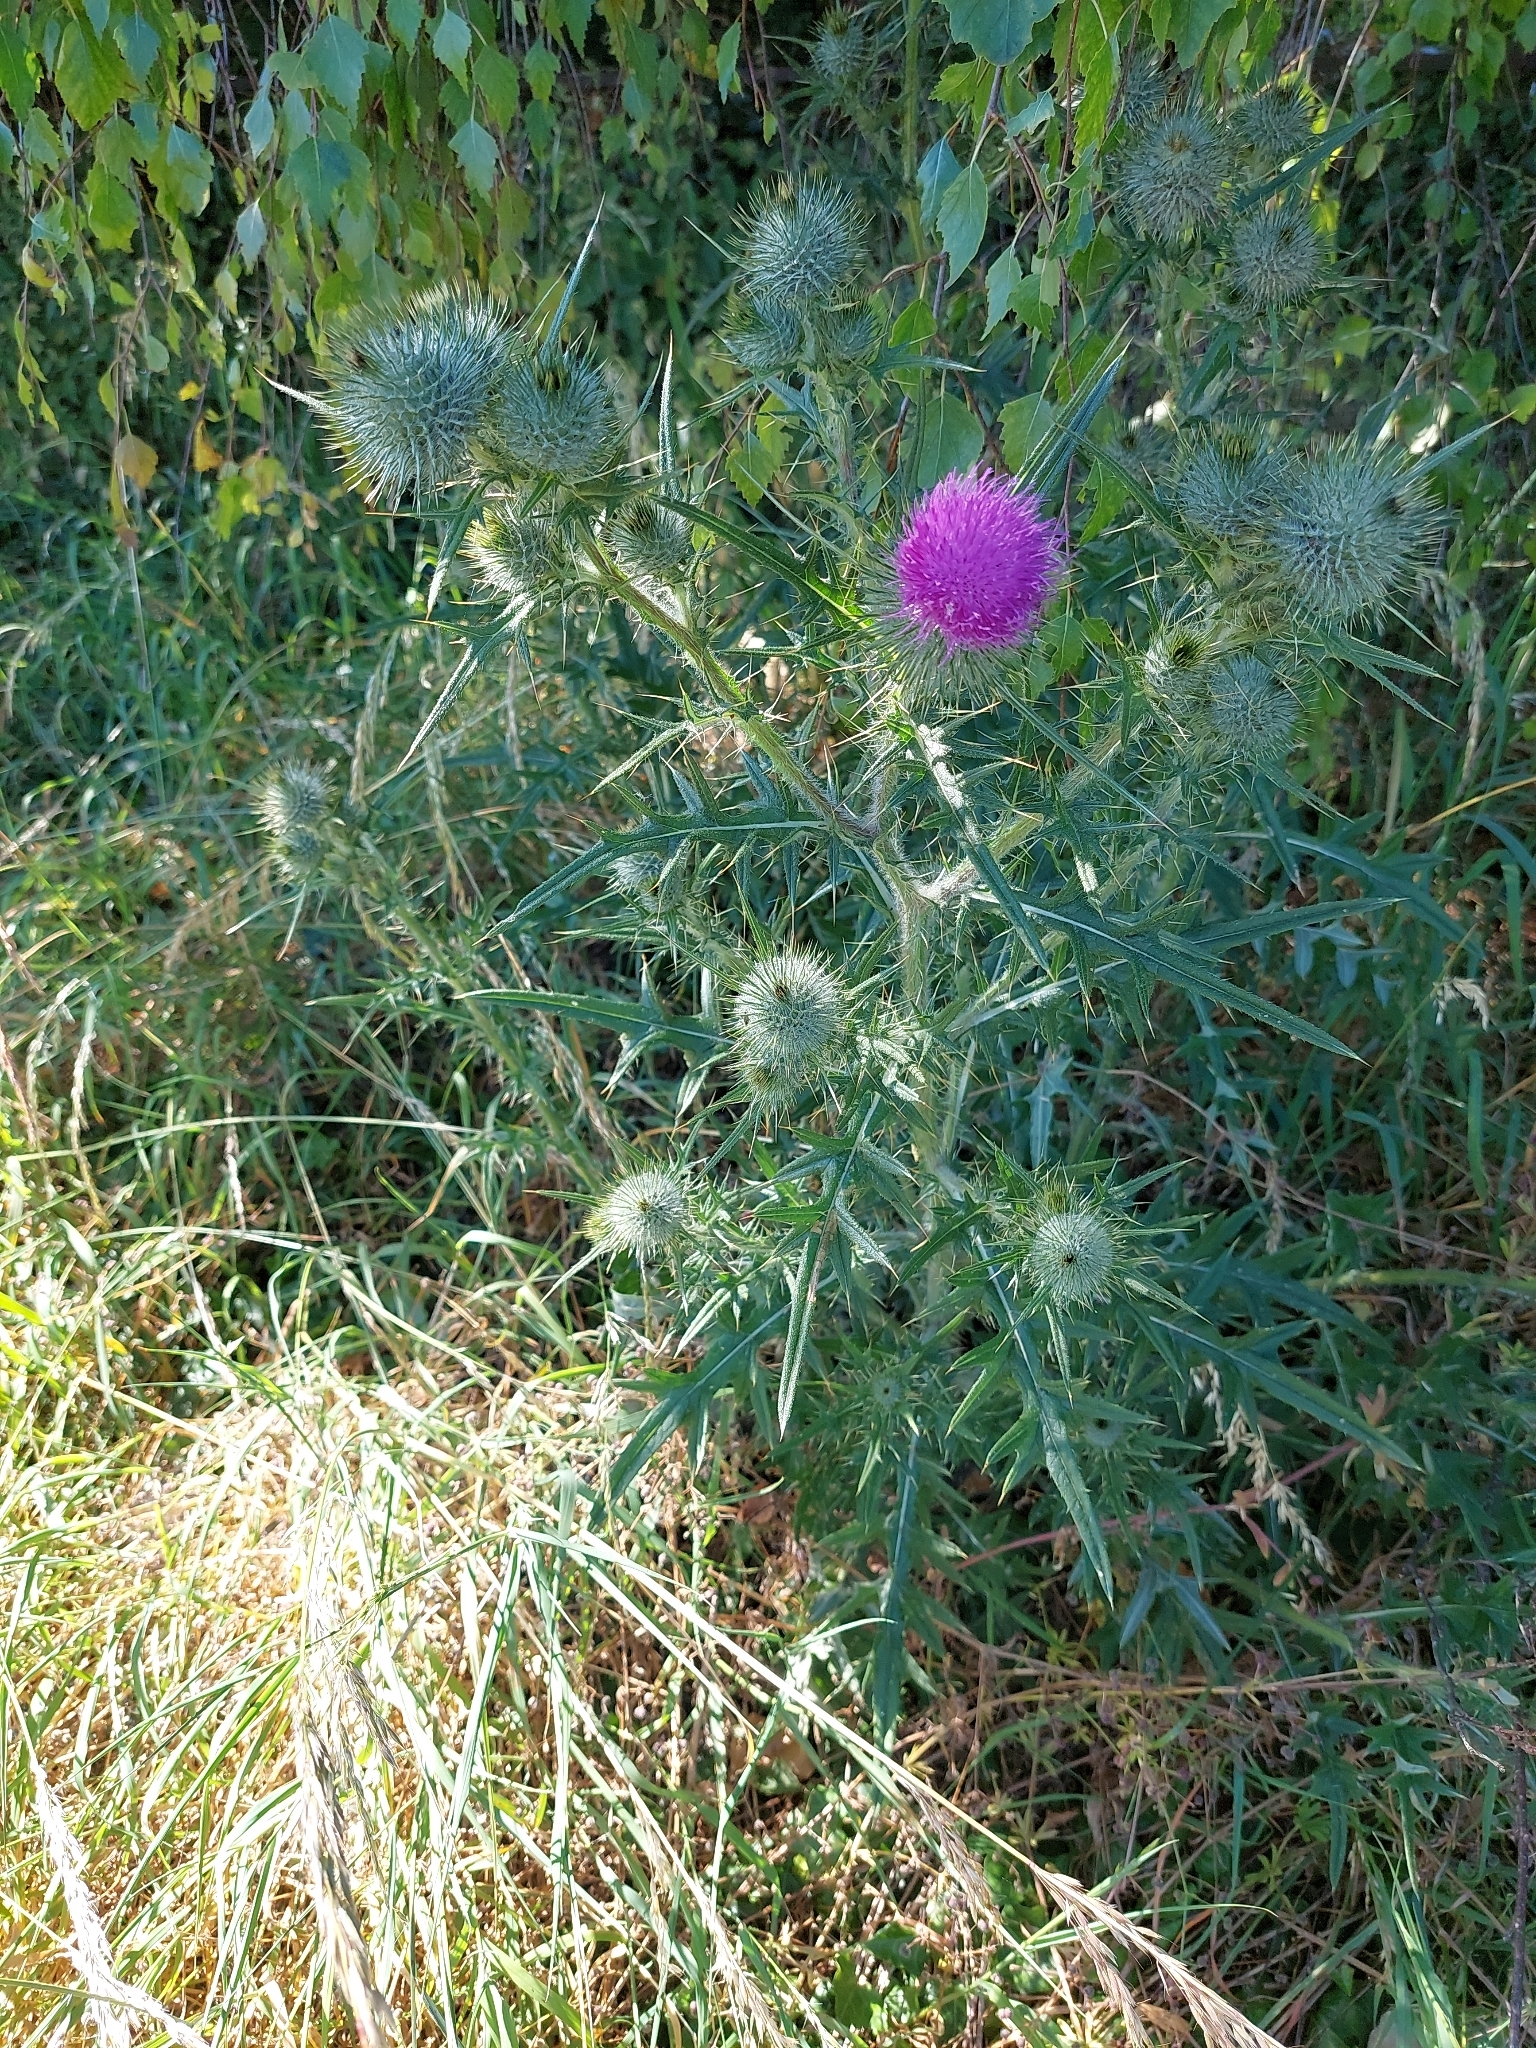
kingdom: Plantae
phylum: Tracheophyta
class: Magnoliopsida
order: Asterales
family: Asteraceae
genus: Cirsium
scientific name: Cirsium vulgare
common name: Bull thistle
